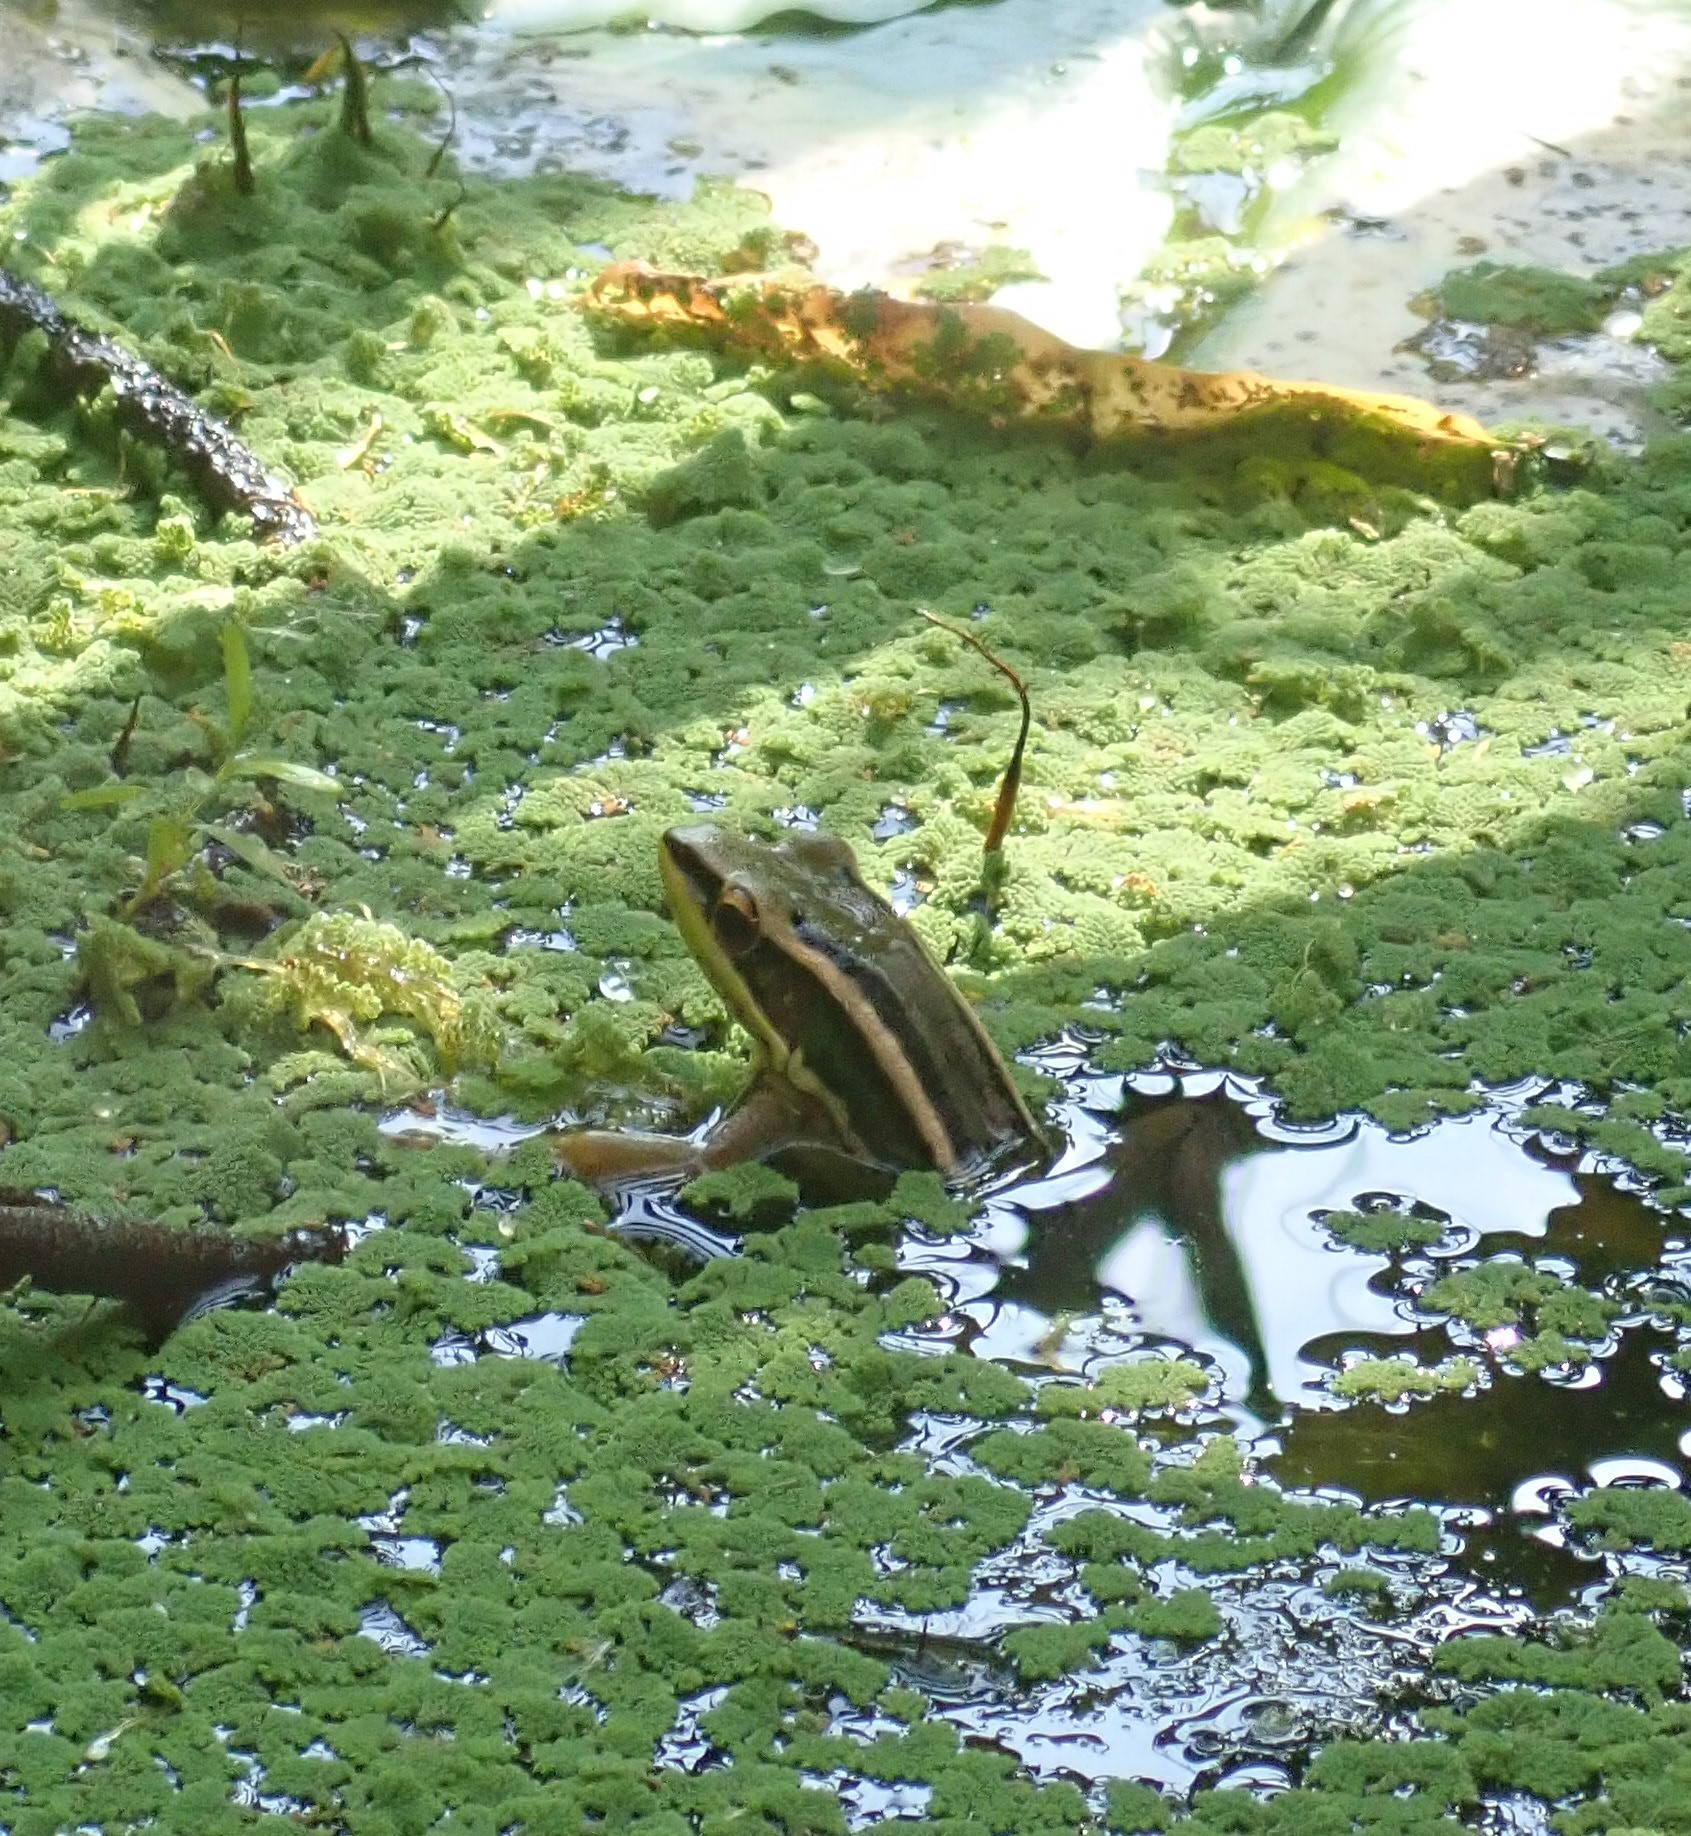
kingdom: Animalia
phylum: Chordata
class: Amphibia
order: Anura
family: Ranidae
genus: Hylarana
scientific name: Hylarana erythraea
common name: Common green frog/green paddy frog/leaf frog
